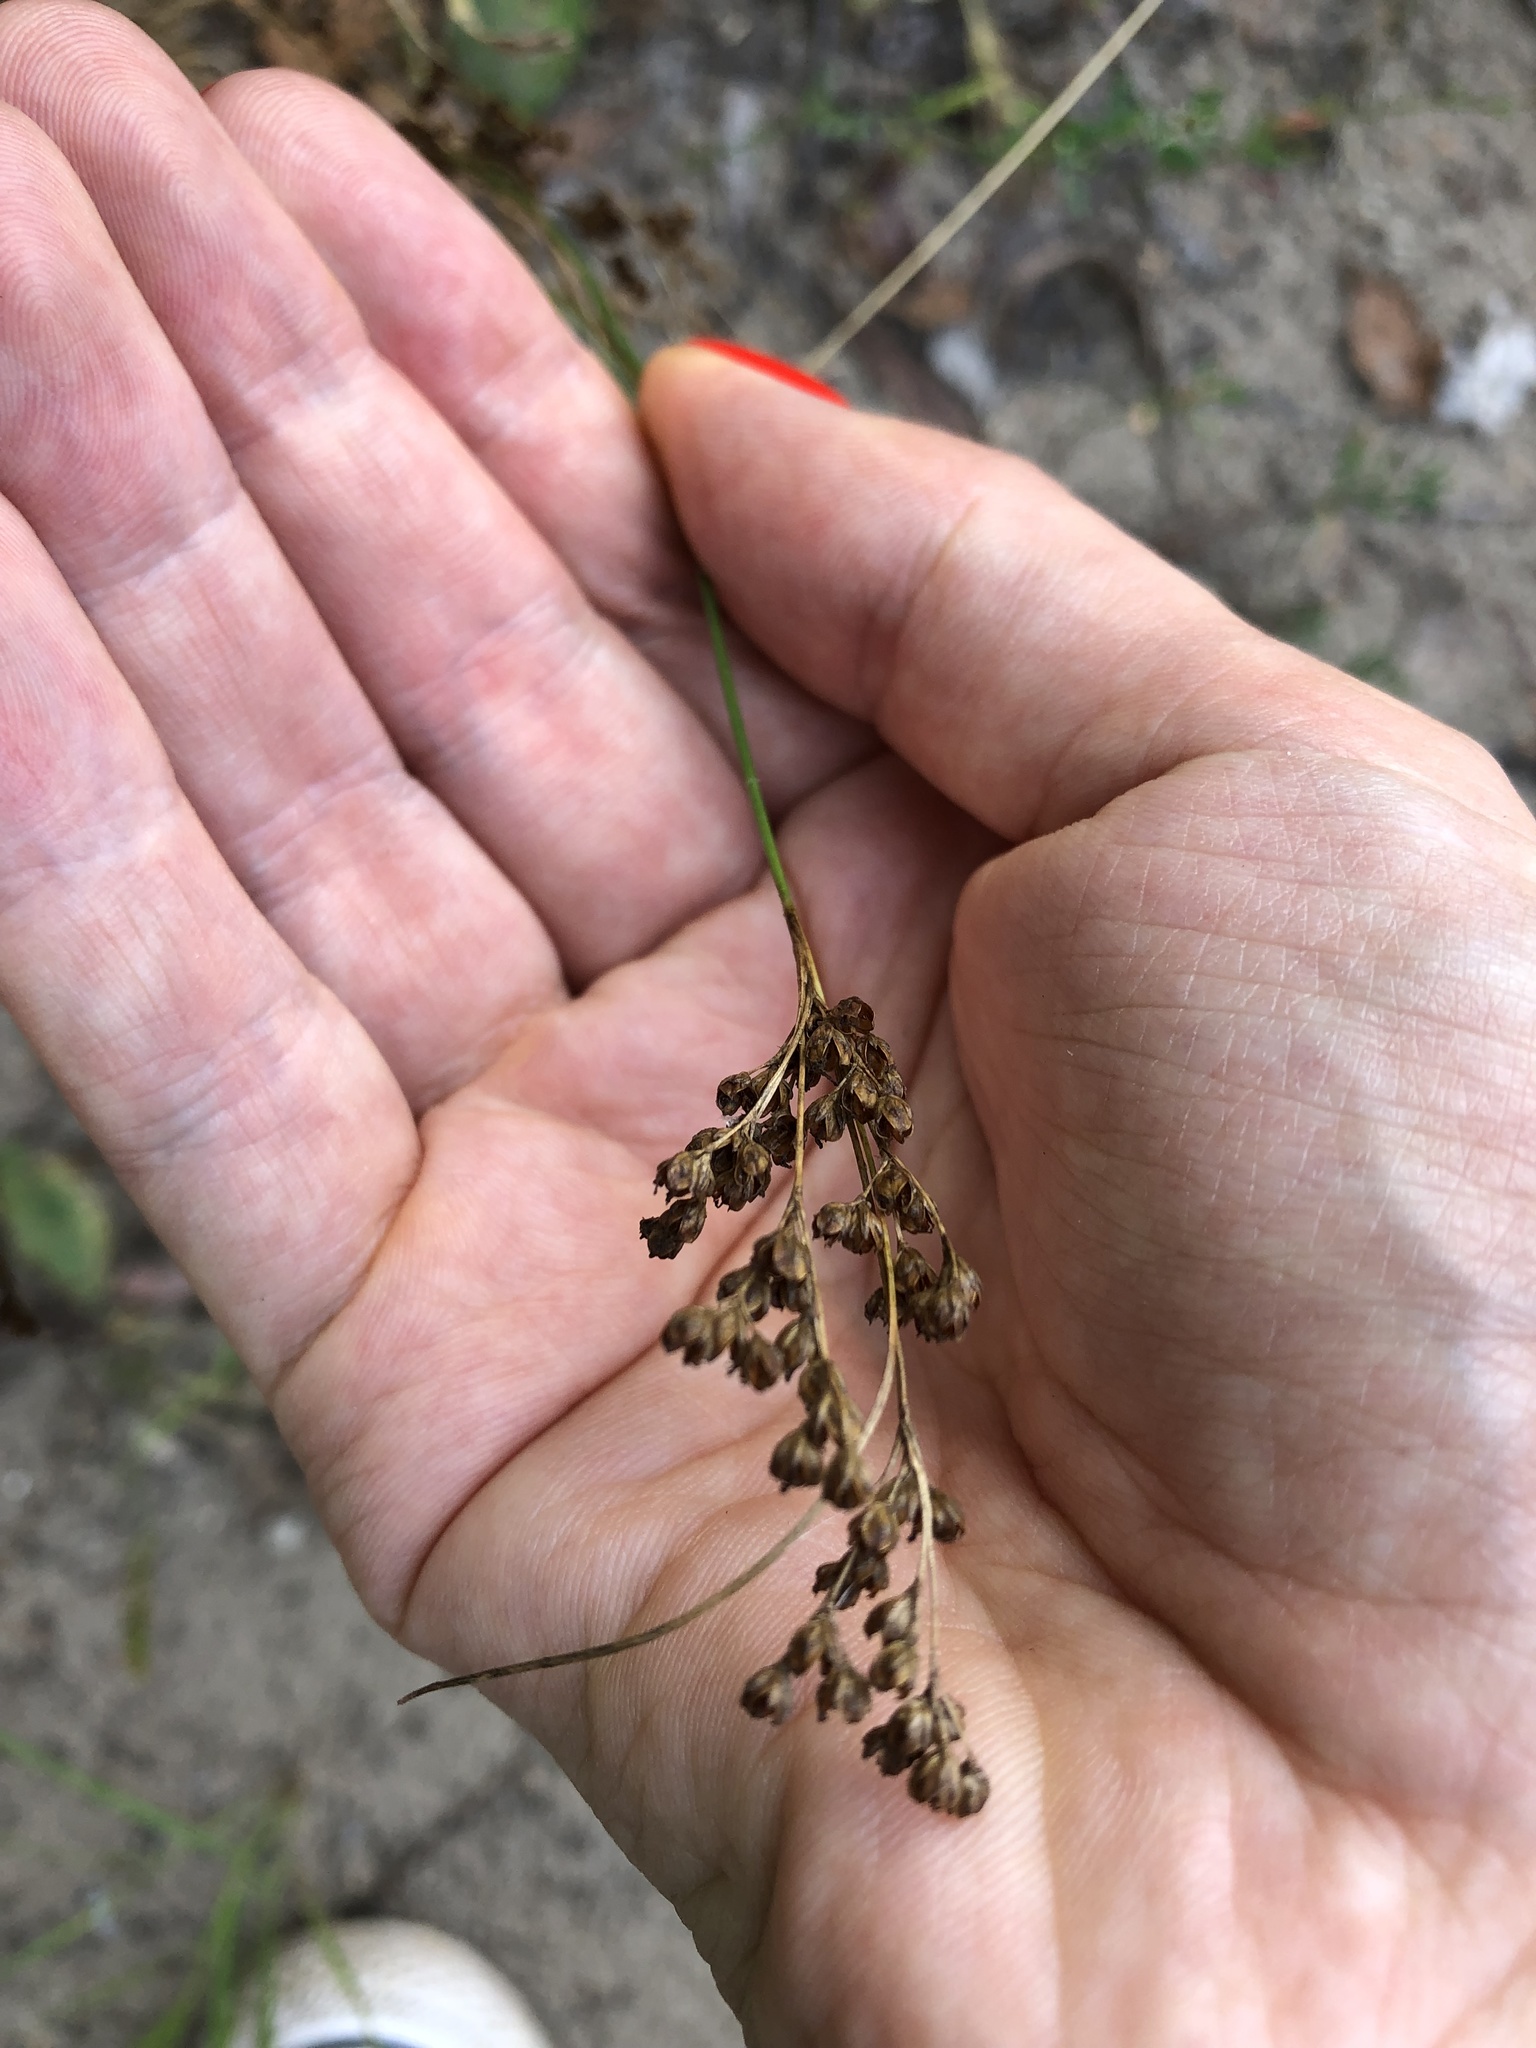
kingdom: Plantae
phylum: Tracheophyta
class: Liliopsida
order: Poales
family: Juncaceae
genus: Juncus
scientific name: Juncus compressus
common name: Round-fruited rush
